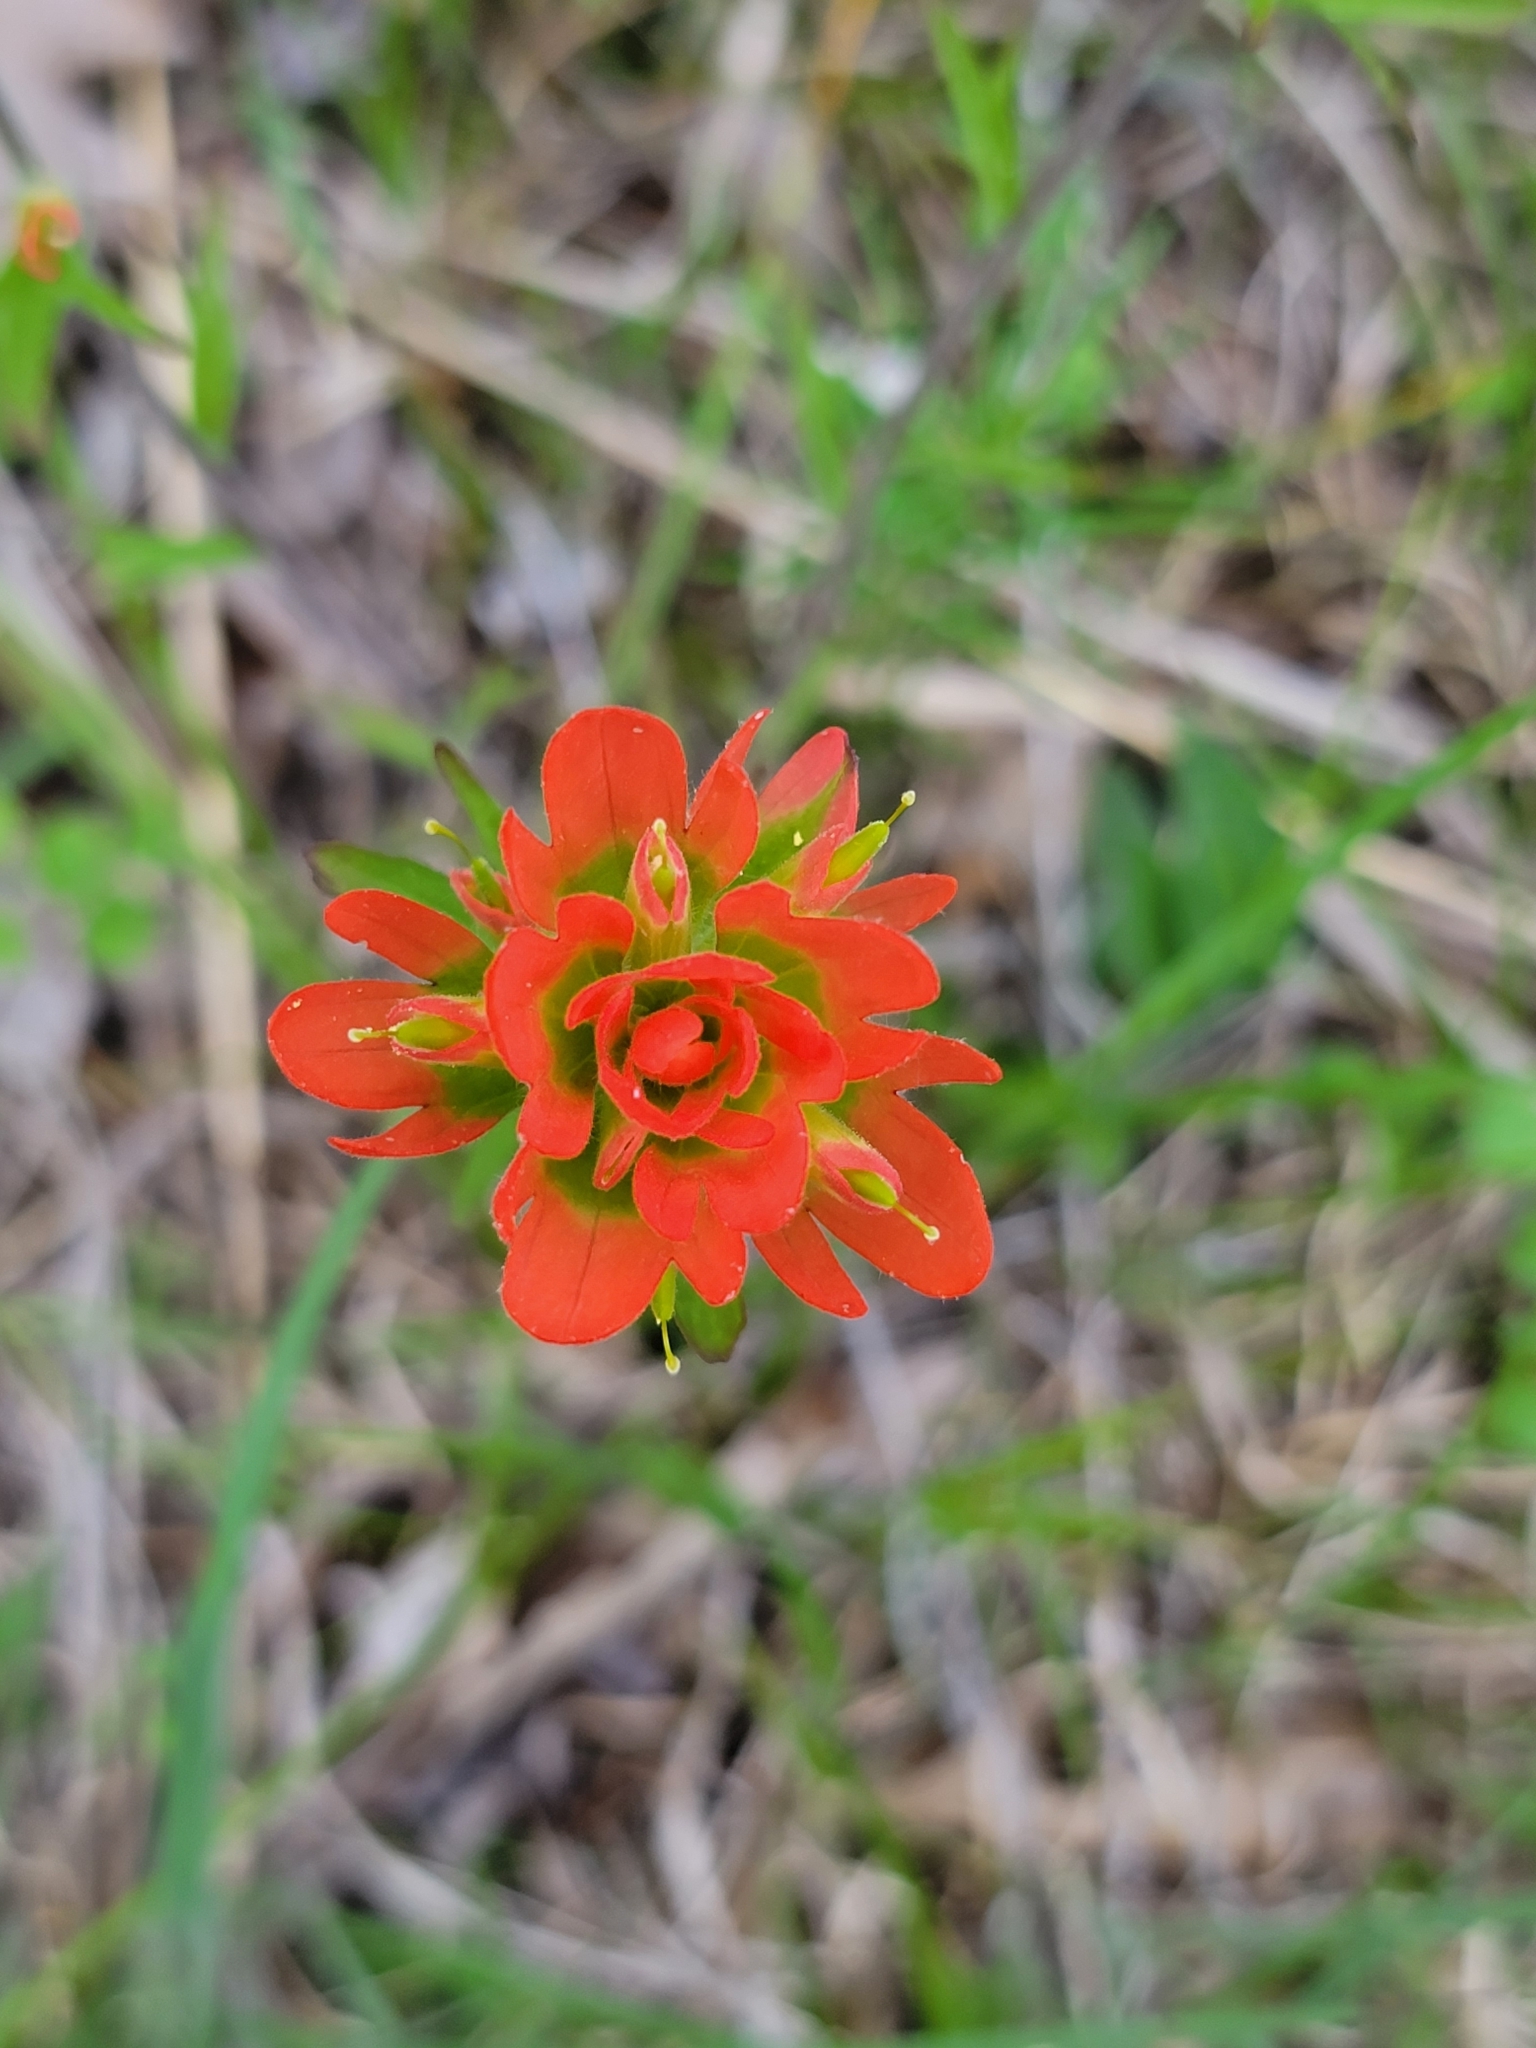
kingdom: Plantae
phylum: Tracheophyta
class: Magnoliopsida
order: Lamiales
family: Orobanchaceae
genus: Castilleja
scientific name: Castilleja coccinea
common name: Scarlet paintbrush
